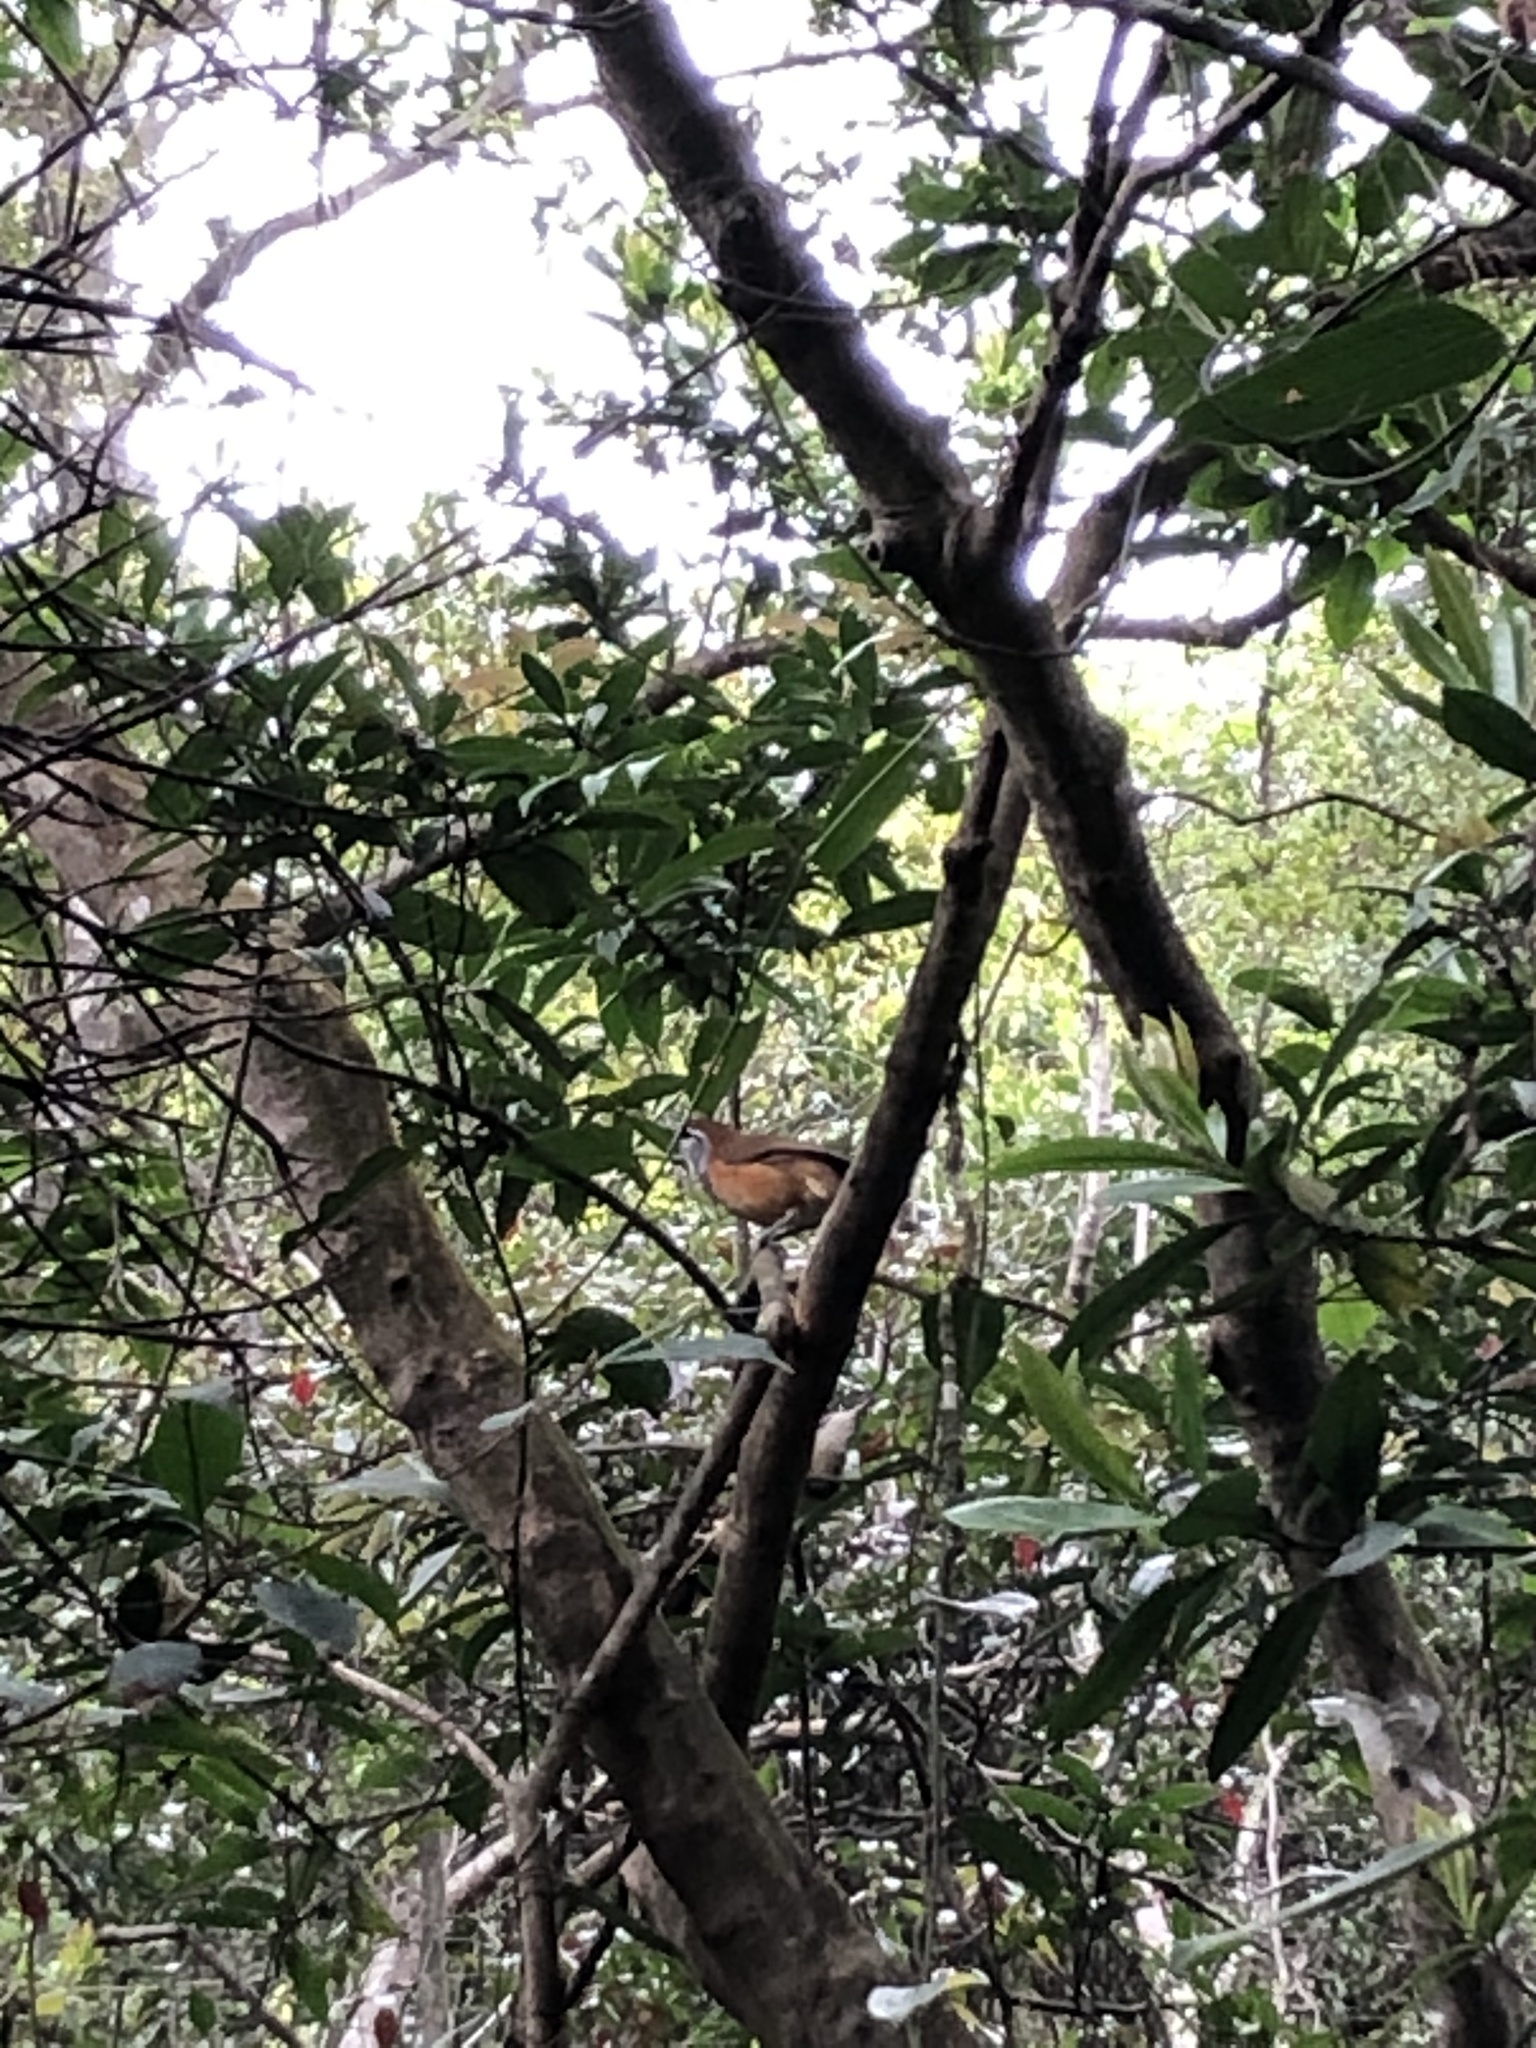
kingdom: Animalia
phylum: Chordata
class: Aves
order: Passeriformes
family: Leiothrichidae
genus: Garrulax
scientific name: Garrulax pectoralis
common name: Greater necklaced laughingthrush
